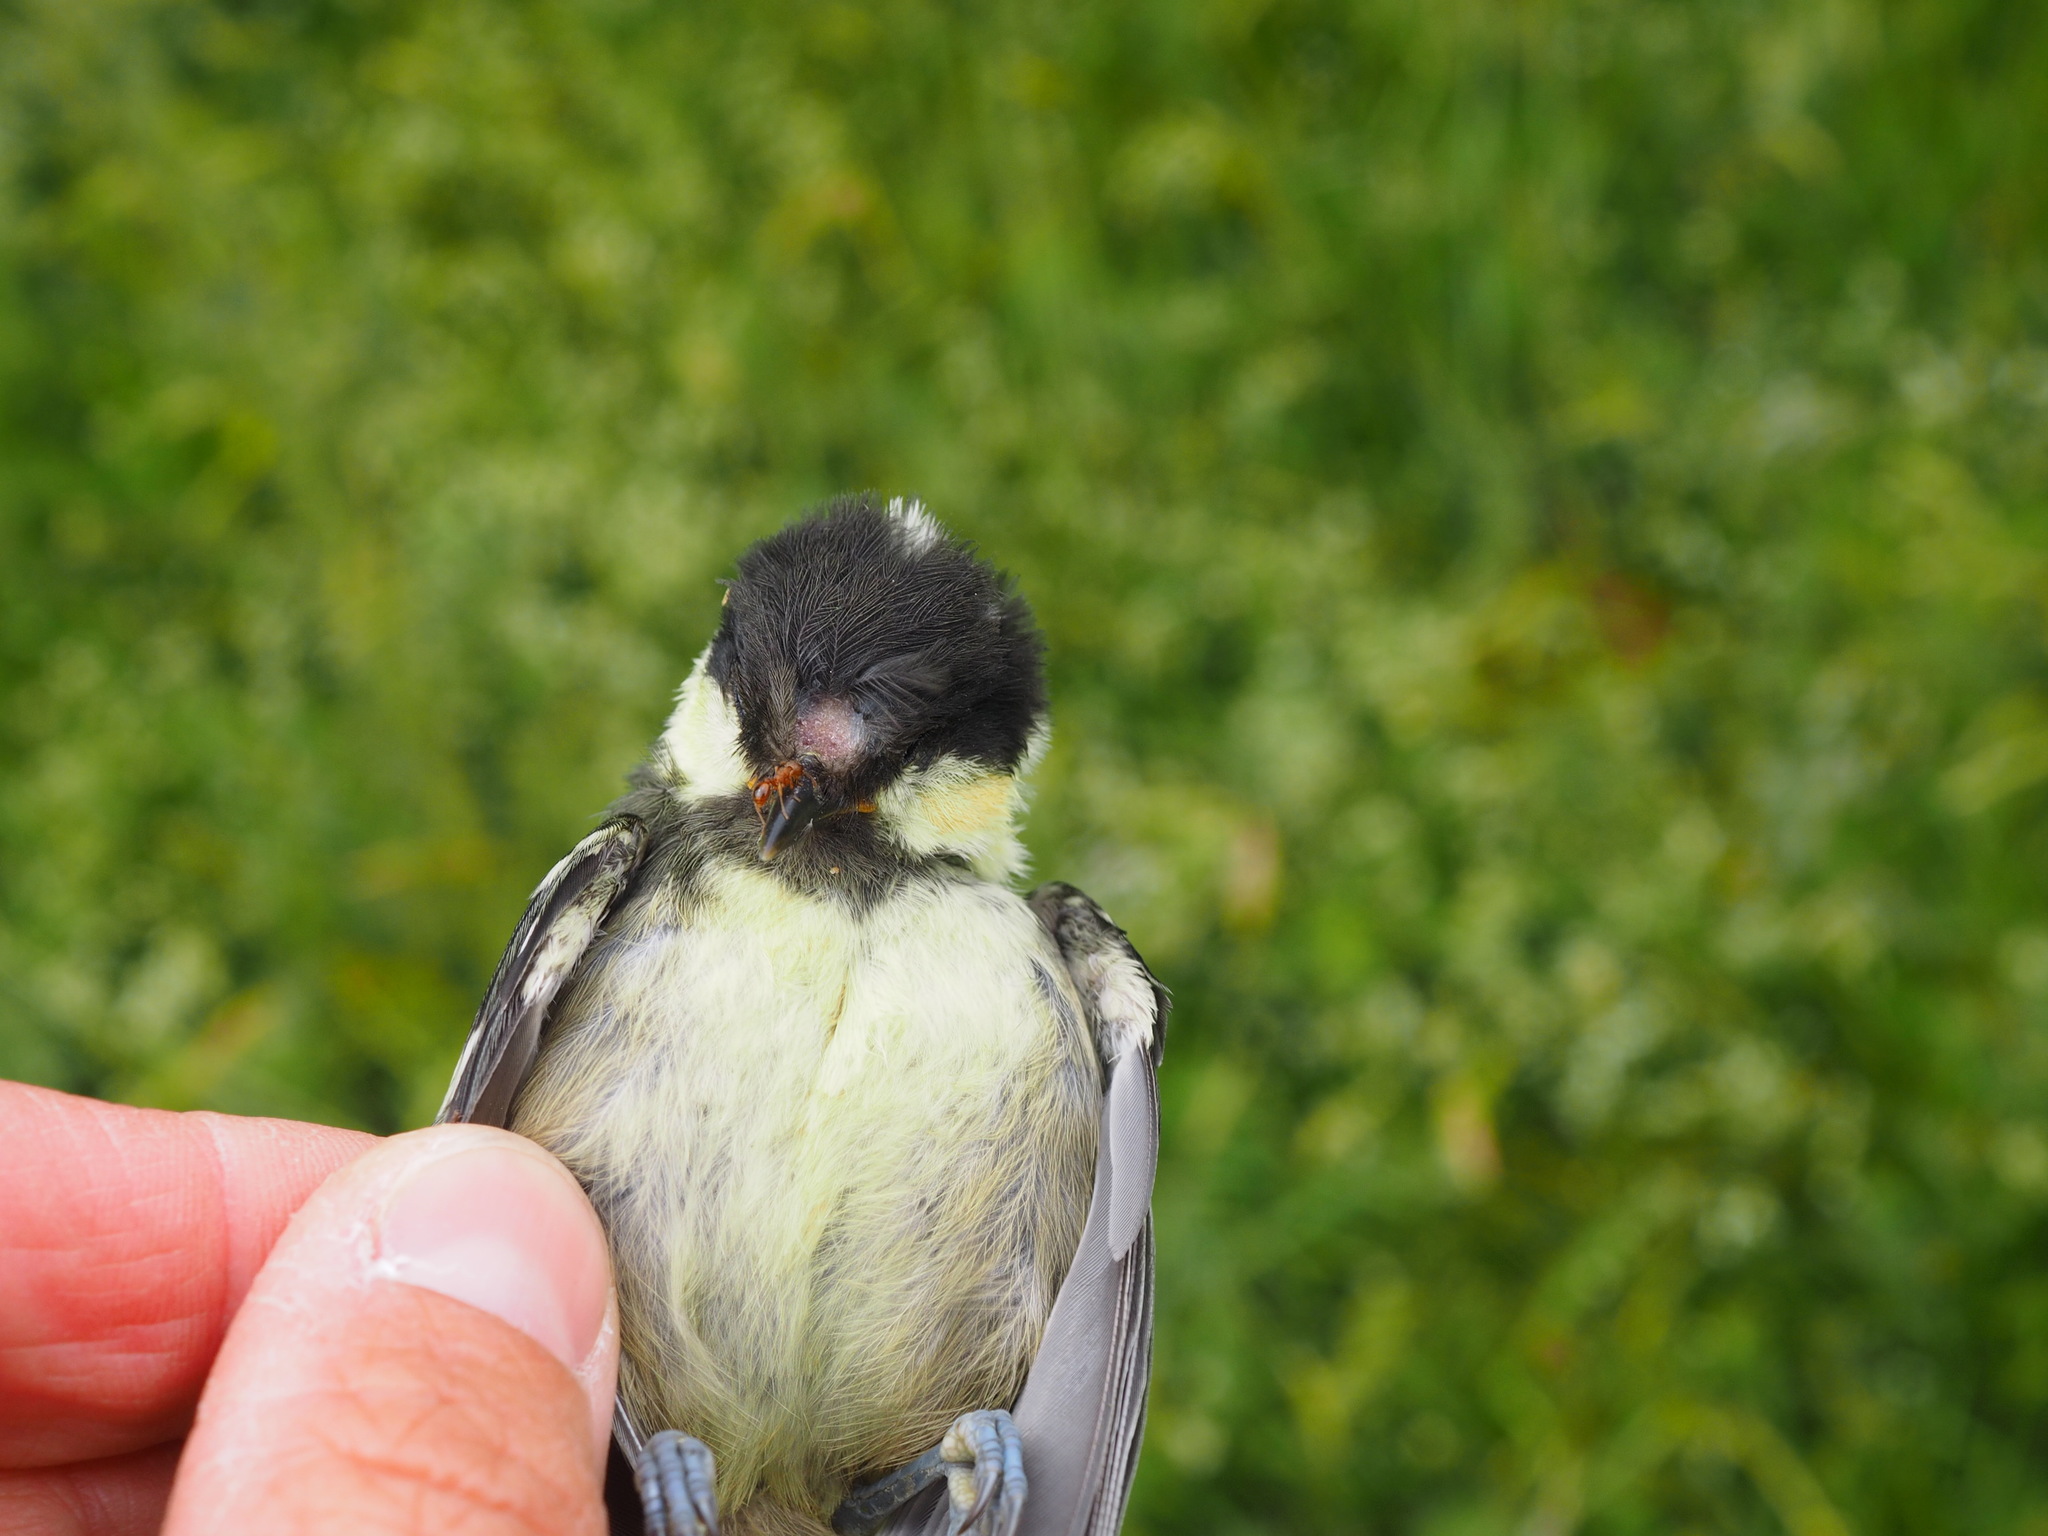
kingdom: Animalia
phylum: Chordata
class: Aves
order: Passeriformes
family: Paridae
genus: Parus
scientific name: Parus major
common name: Great tit
